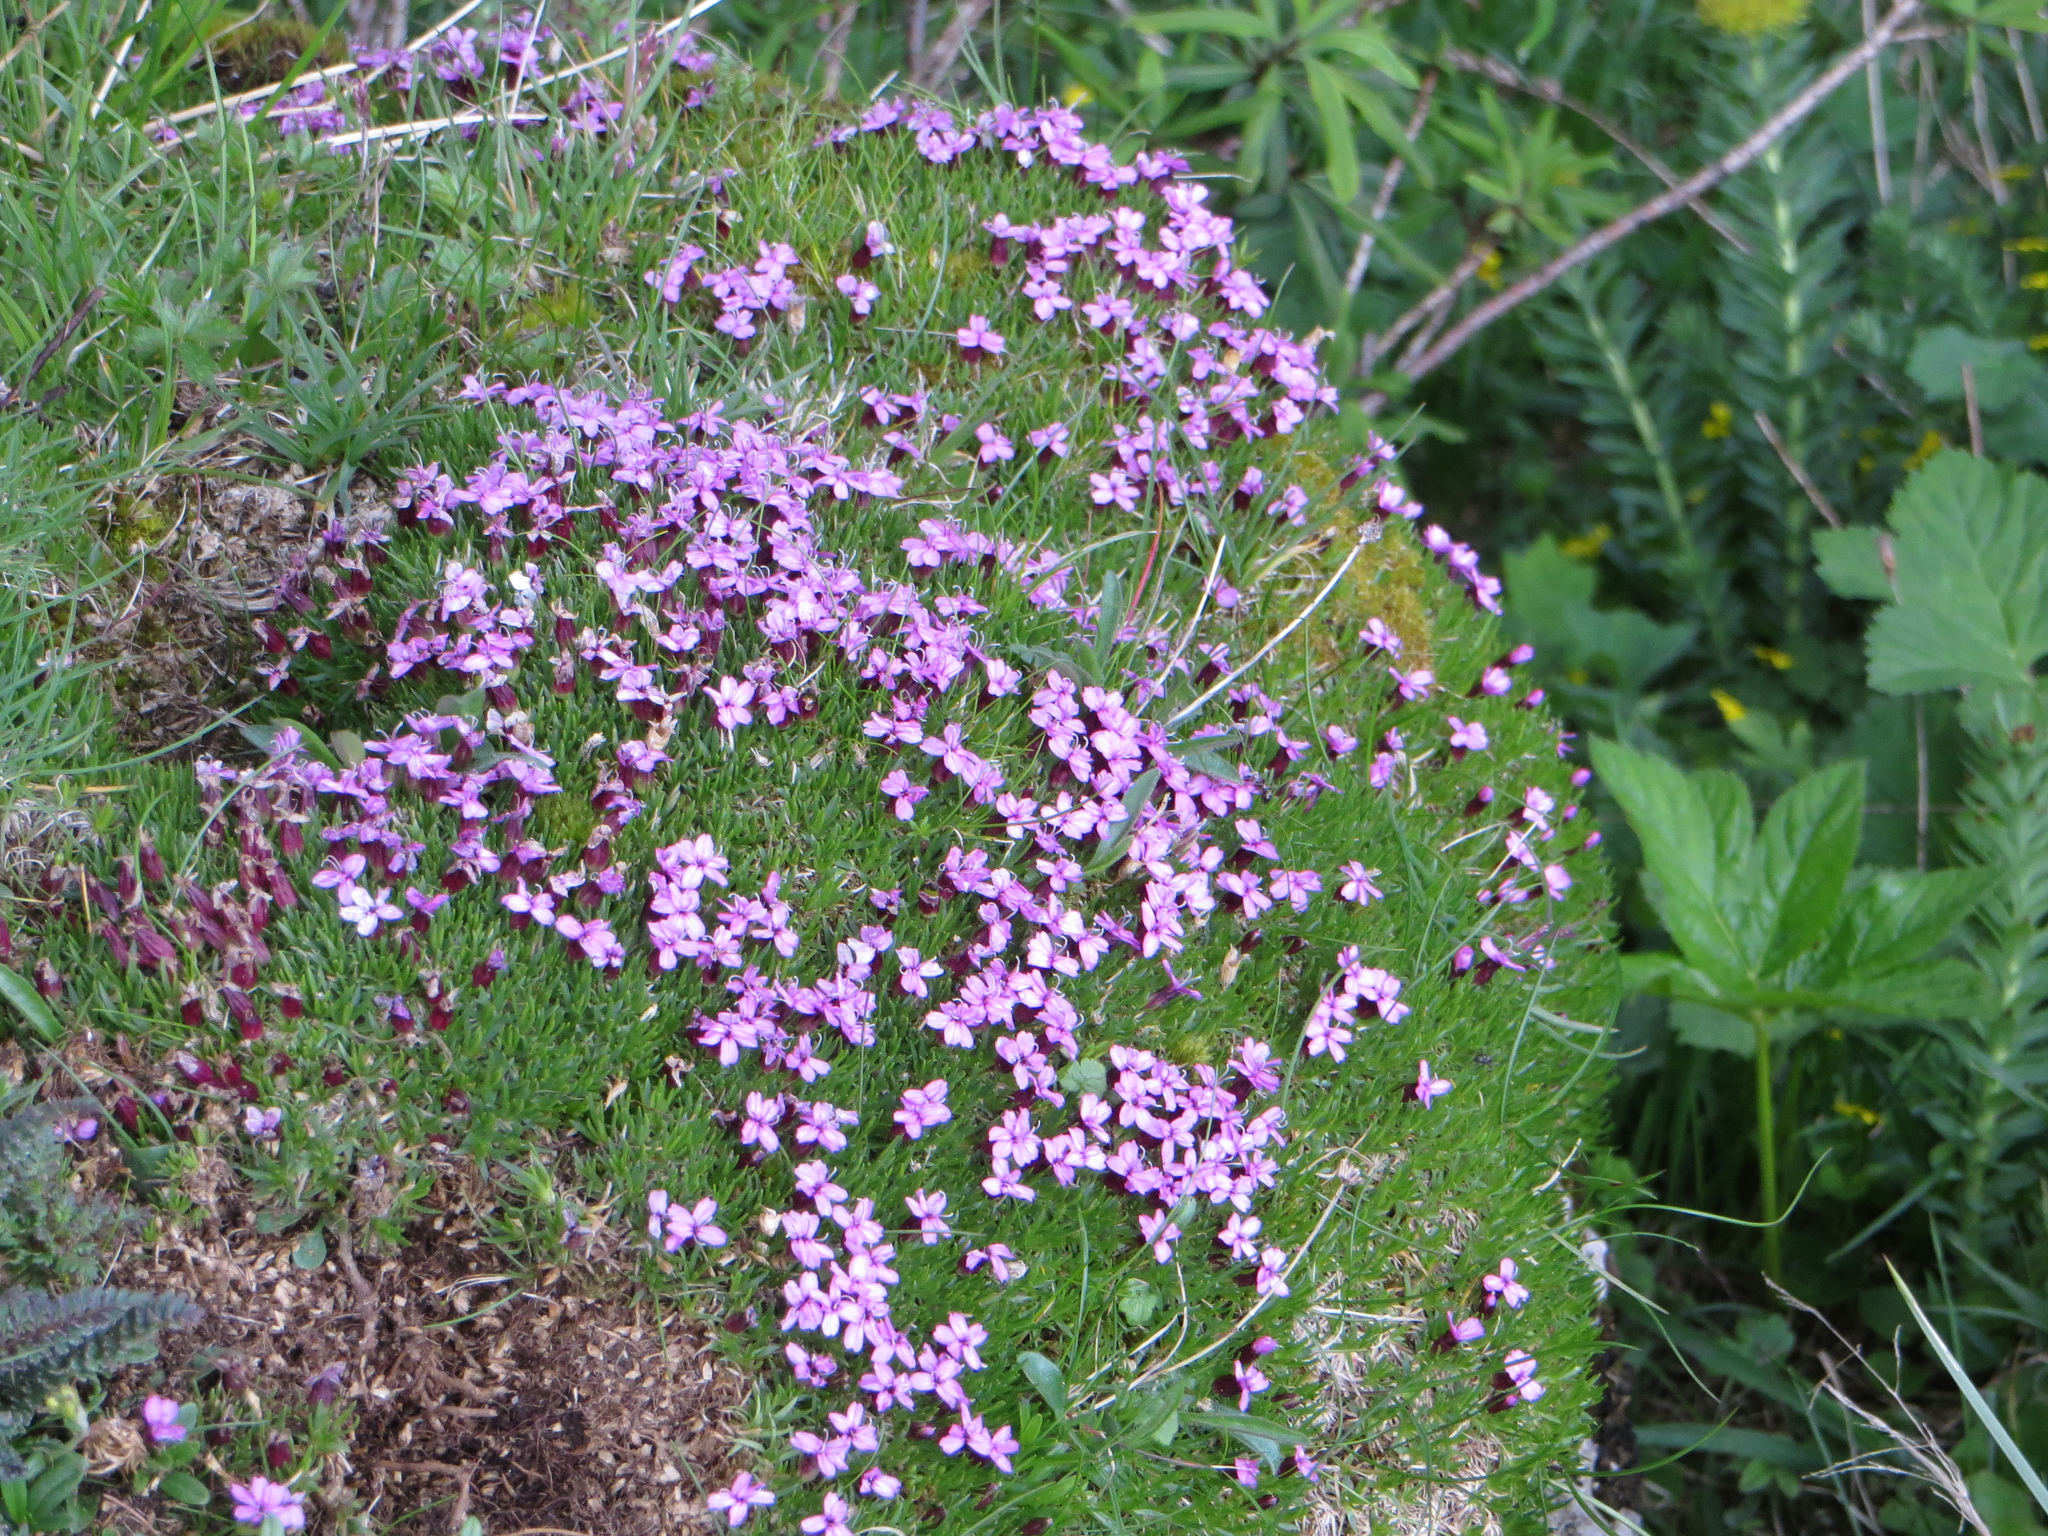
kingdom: Plantae
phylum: Tracheophyta
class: Magnoliopsida
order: Caryophyllales
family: Caryophyllaceae
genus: Silene
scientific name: Silene acaulis
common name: Moss campion
